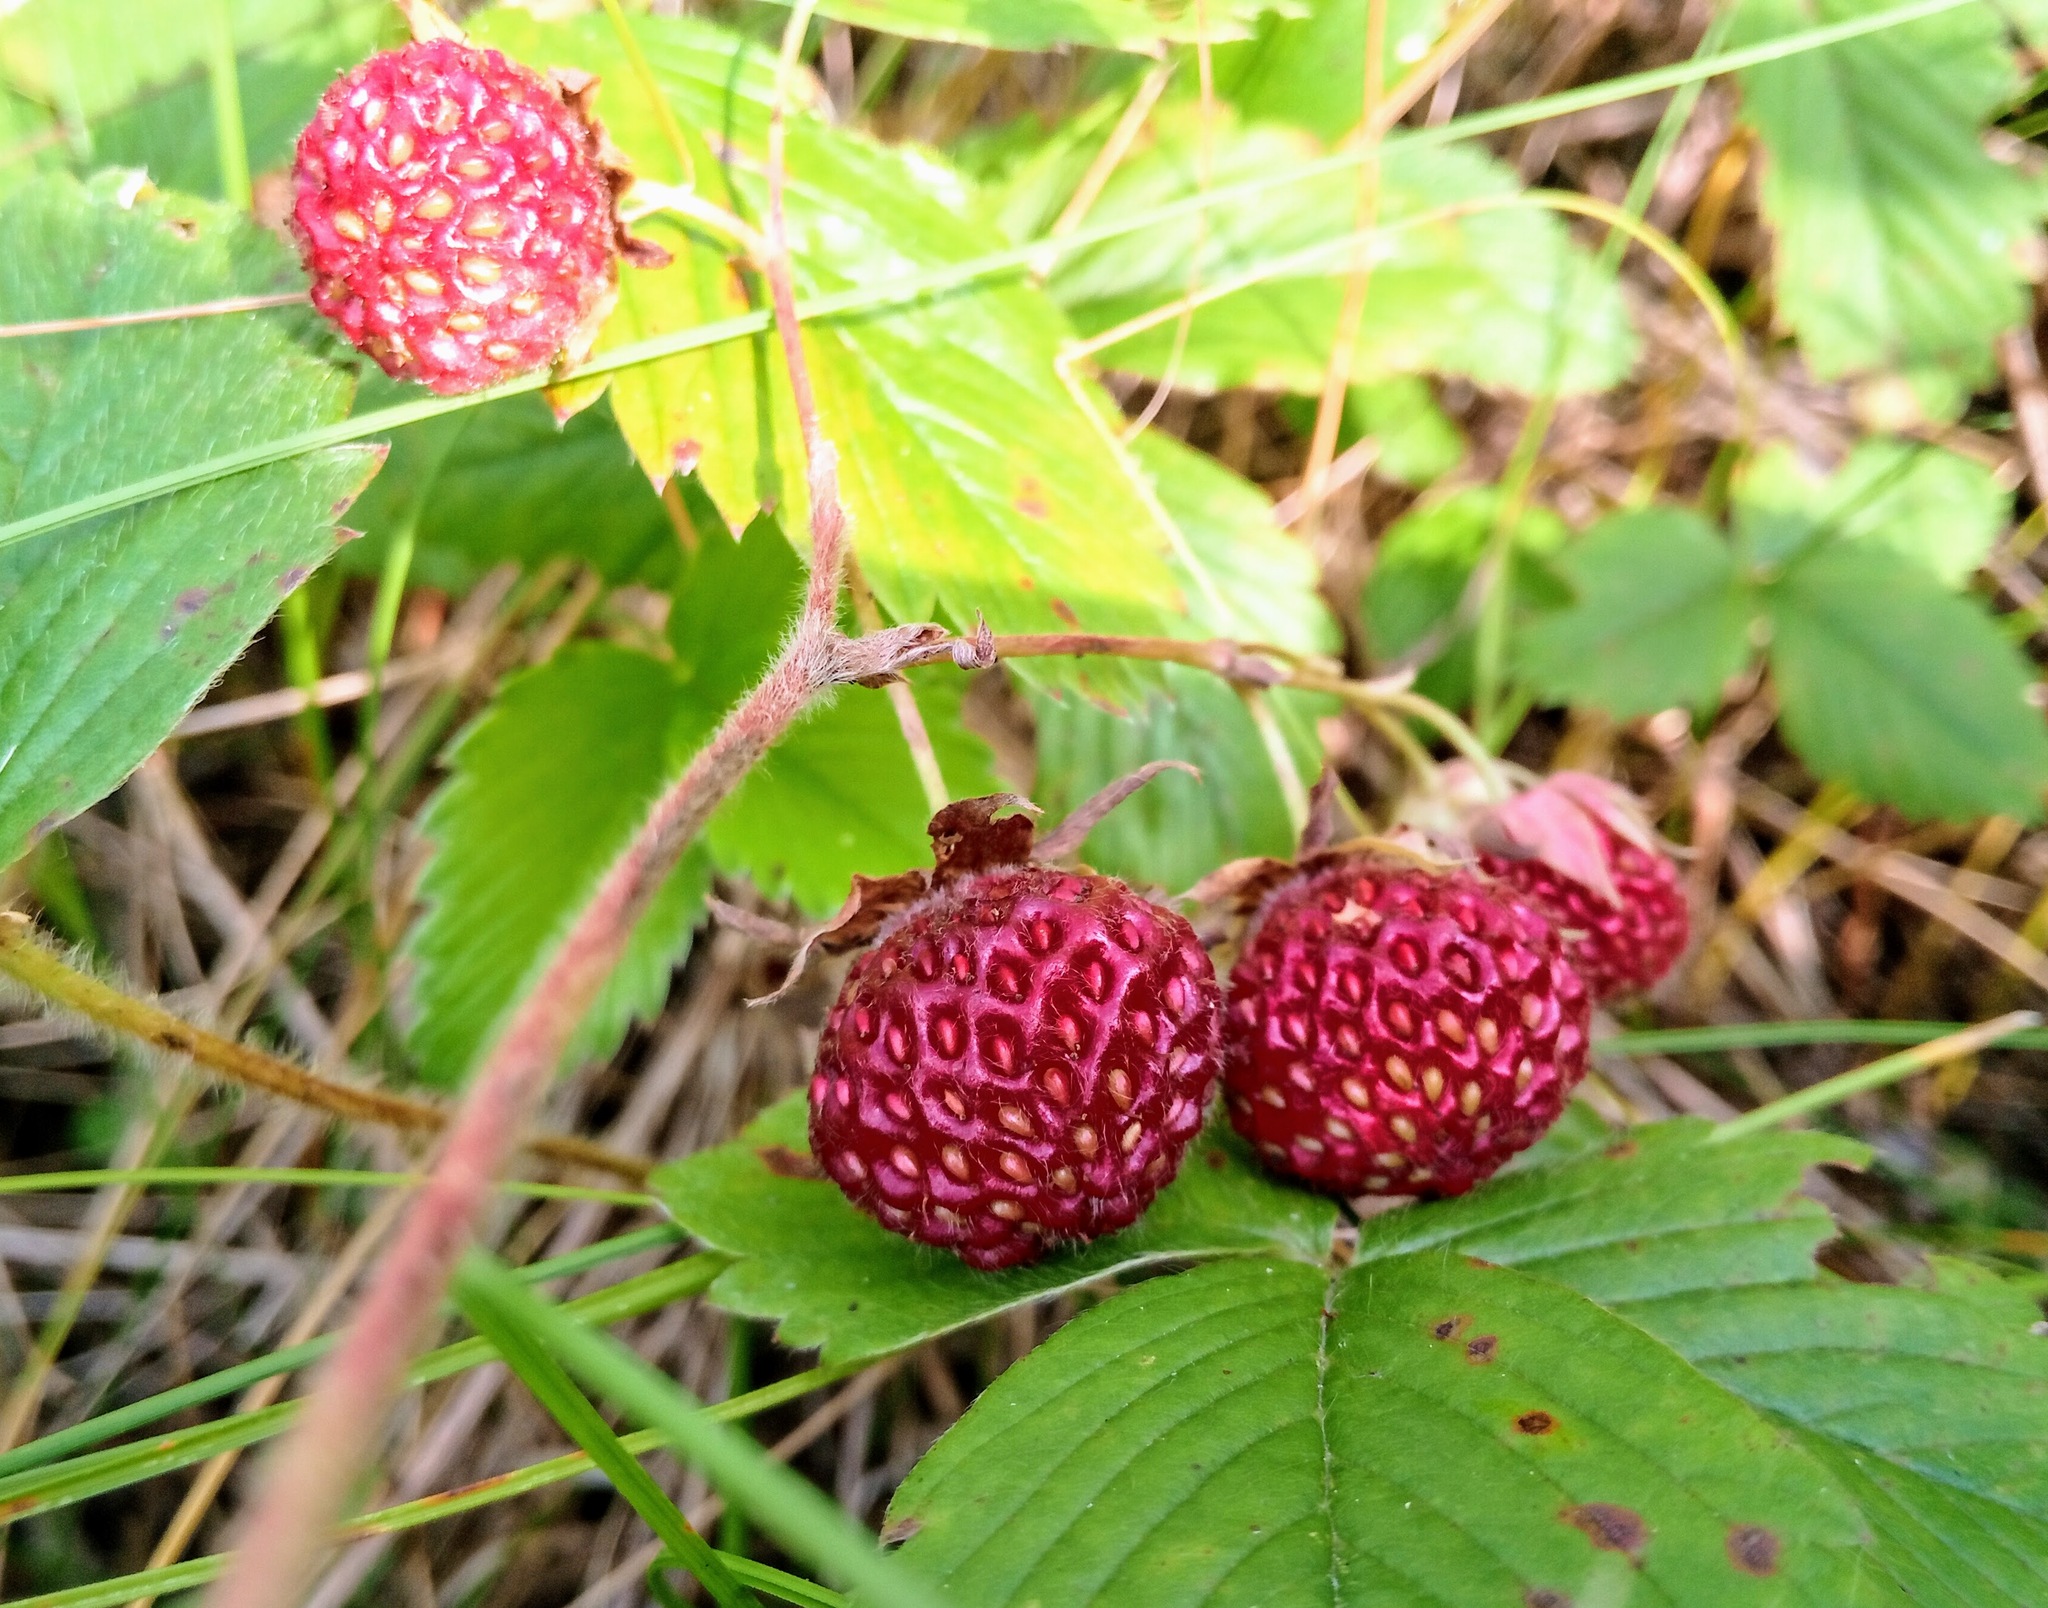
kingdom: Plantae
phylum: Tracheophyta
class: Magnoliopsida
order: Rosales
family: Rosaceae
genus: Fragaria
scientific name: Fragaria viridis
